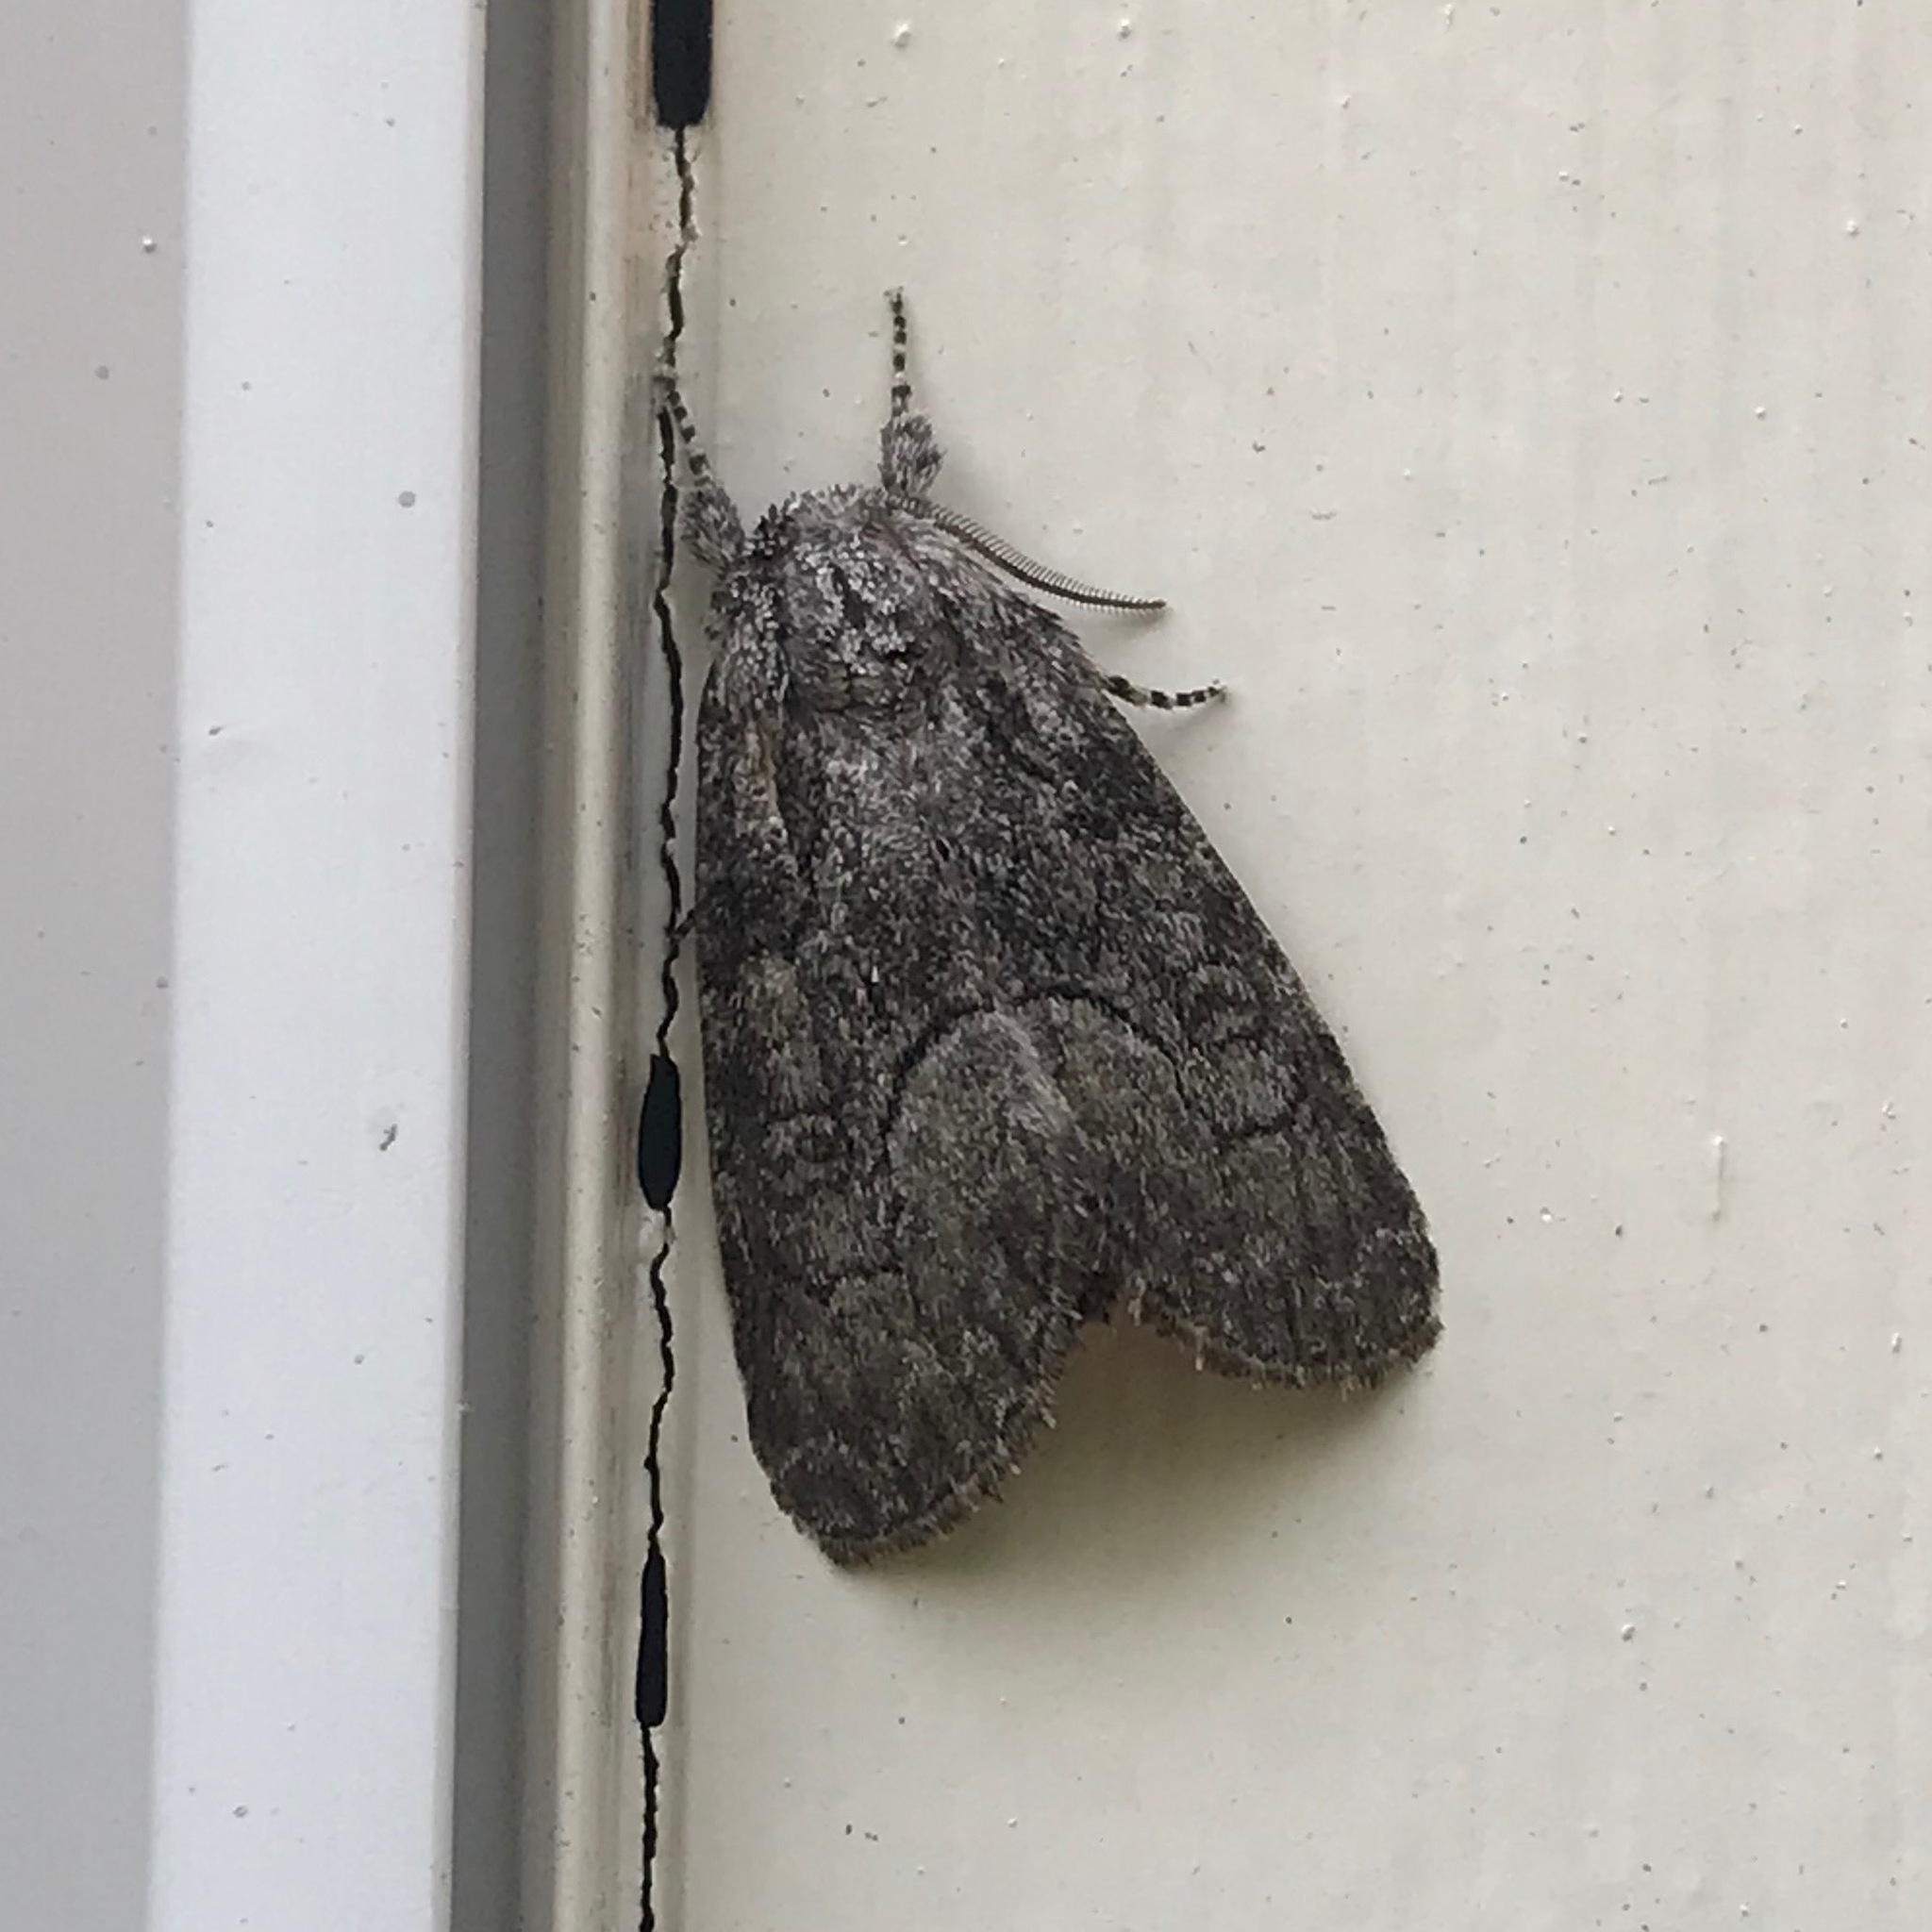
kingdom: Animalia
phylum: Arthropoda
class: Insecta
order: Lepidoptera
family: Noctuidae
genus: Raphia
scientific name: Raphia frater
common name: Brother
